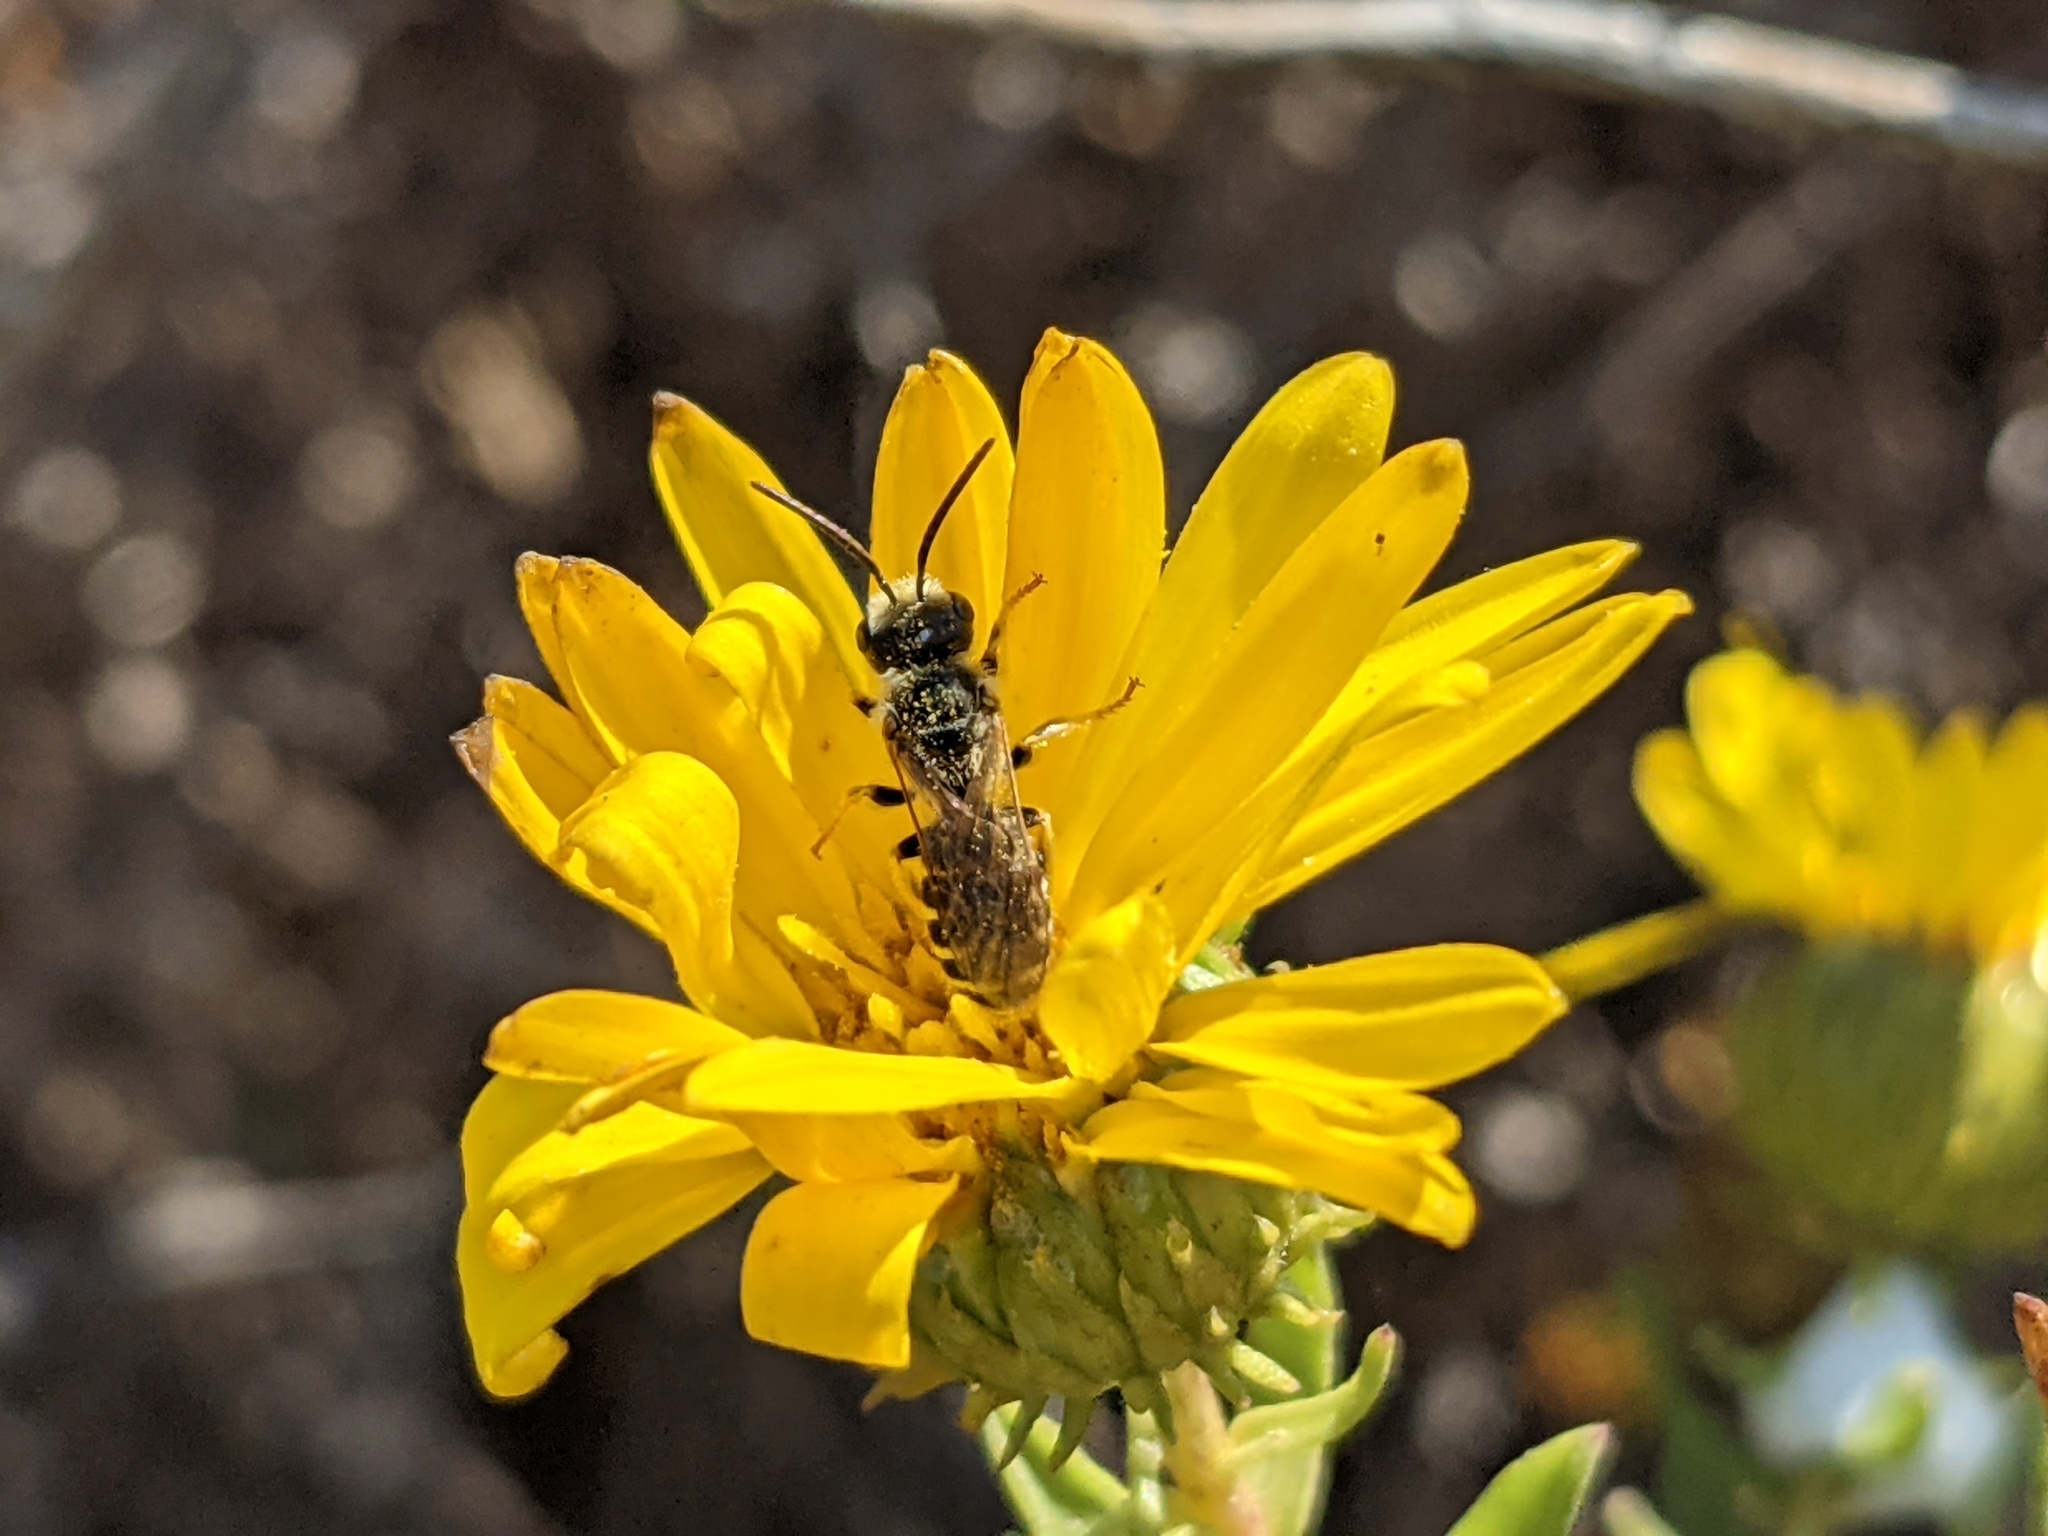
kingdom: Animalia
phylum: Arthropoda
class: Insecta
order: Hymenoptera
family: Halictidae
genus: Halictus
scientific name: Halictus ligatus
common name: Ligated furrow bee
